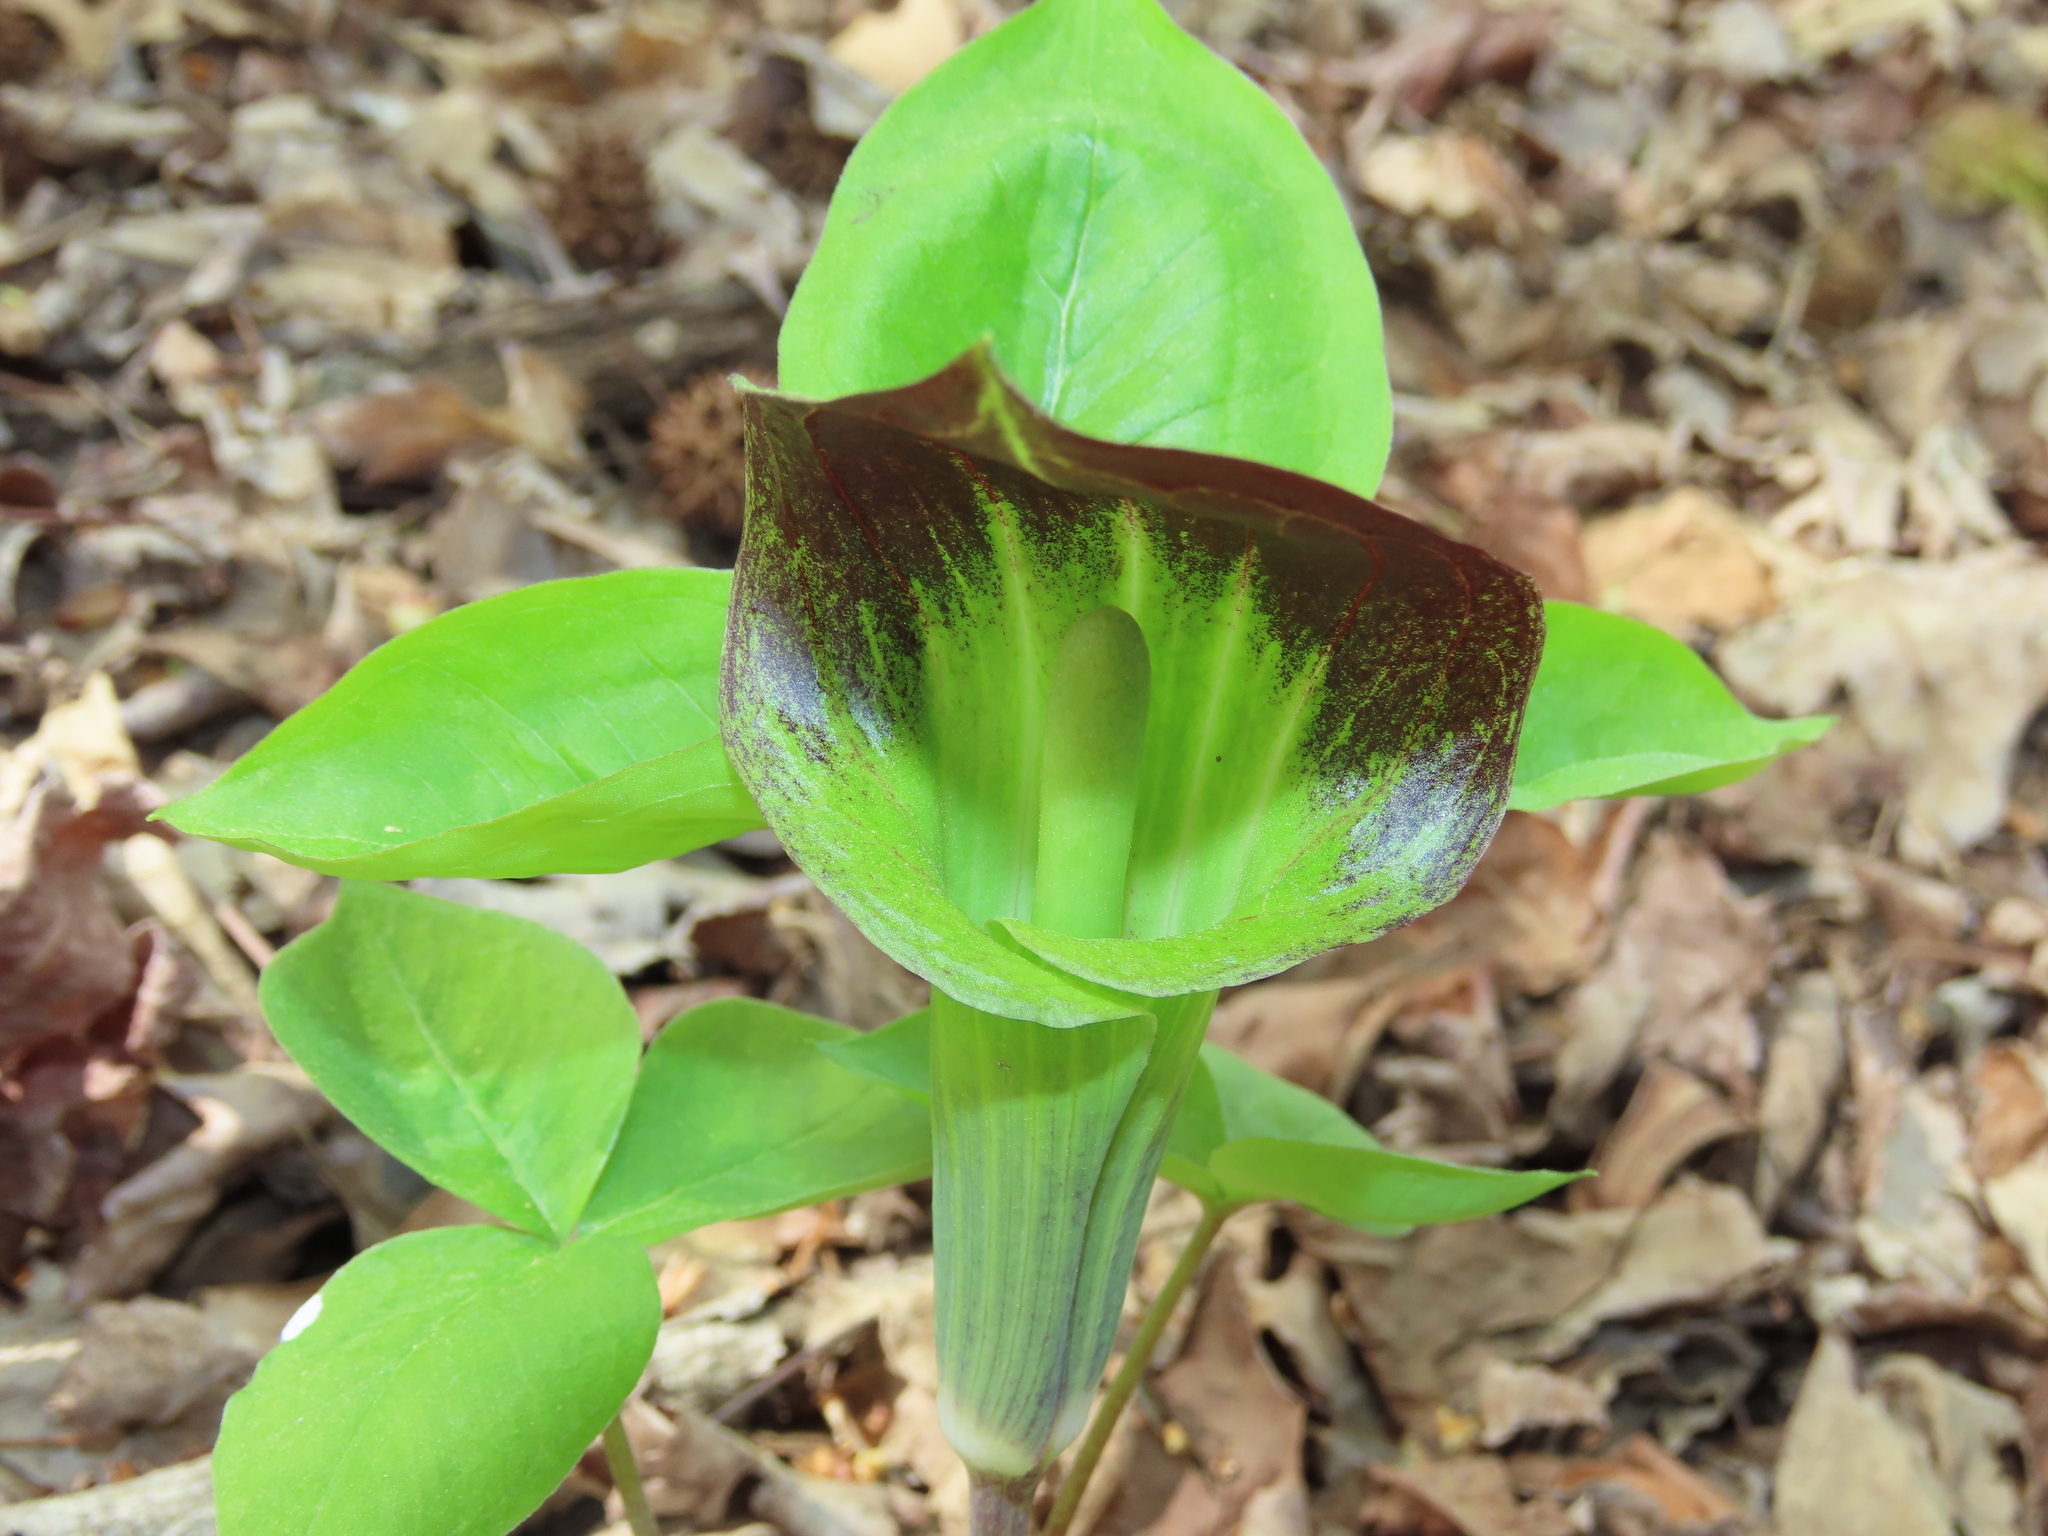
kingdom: Plantae
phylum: Tracheophyta
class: Liliopsida
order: Alismatales
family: Araceae
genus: Arisaema
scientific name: Arisaema triphyllum
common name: Jack-in-the-pulpit
